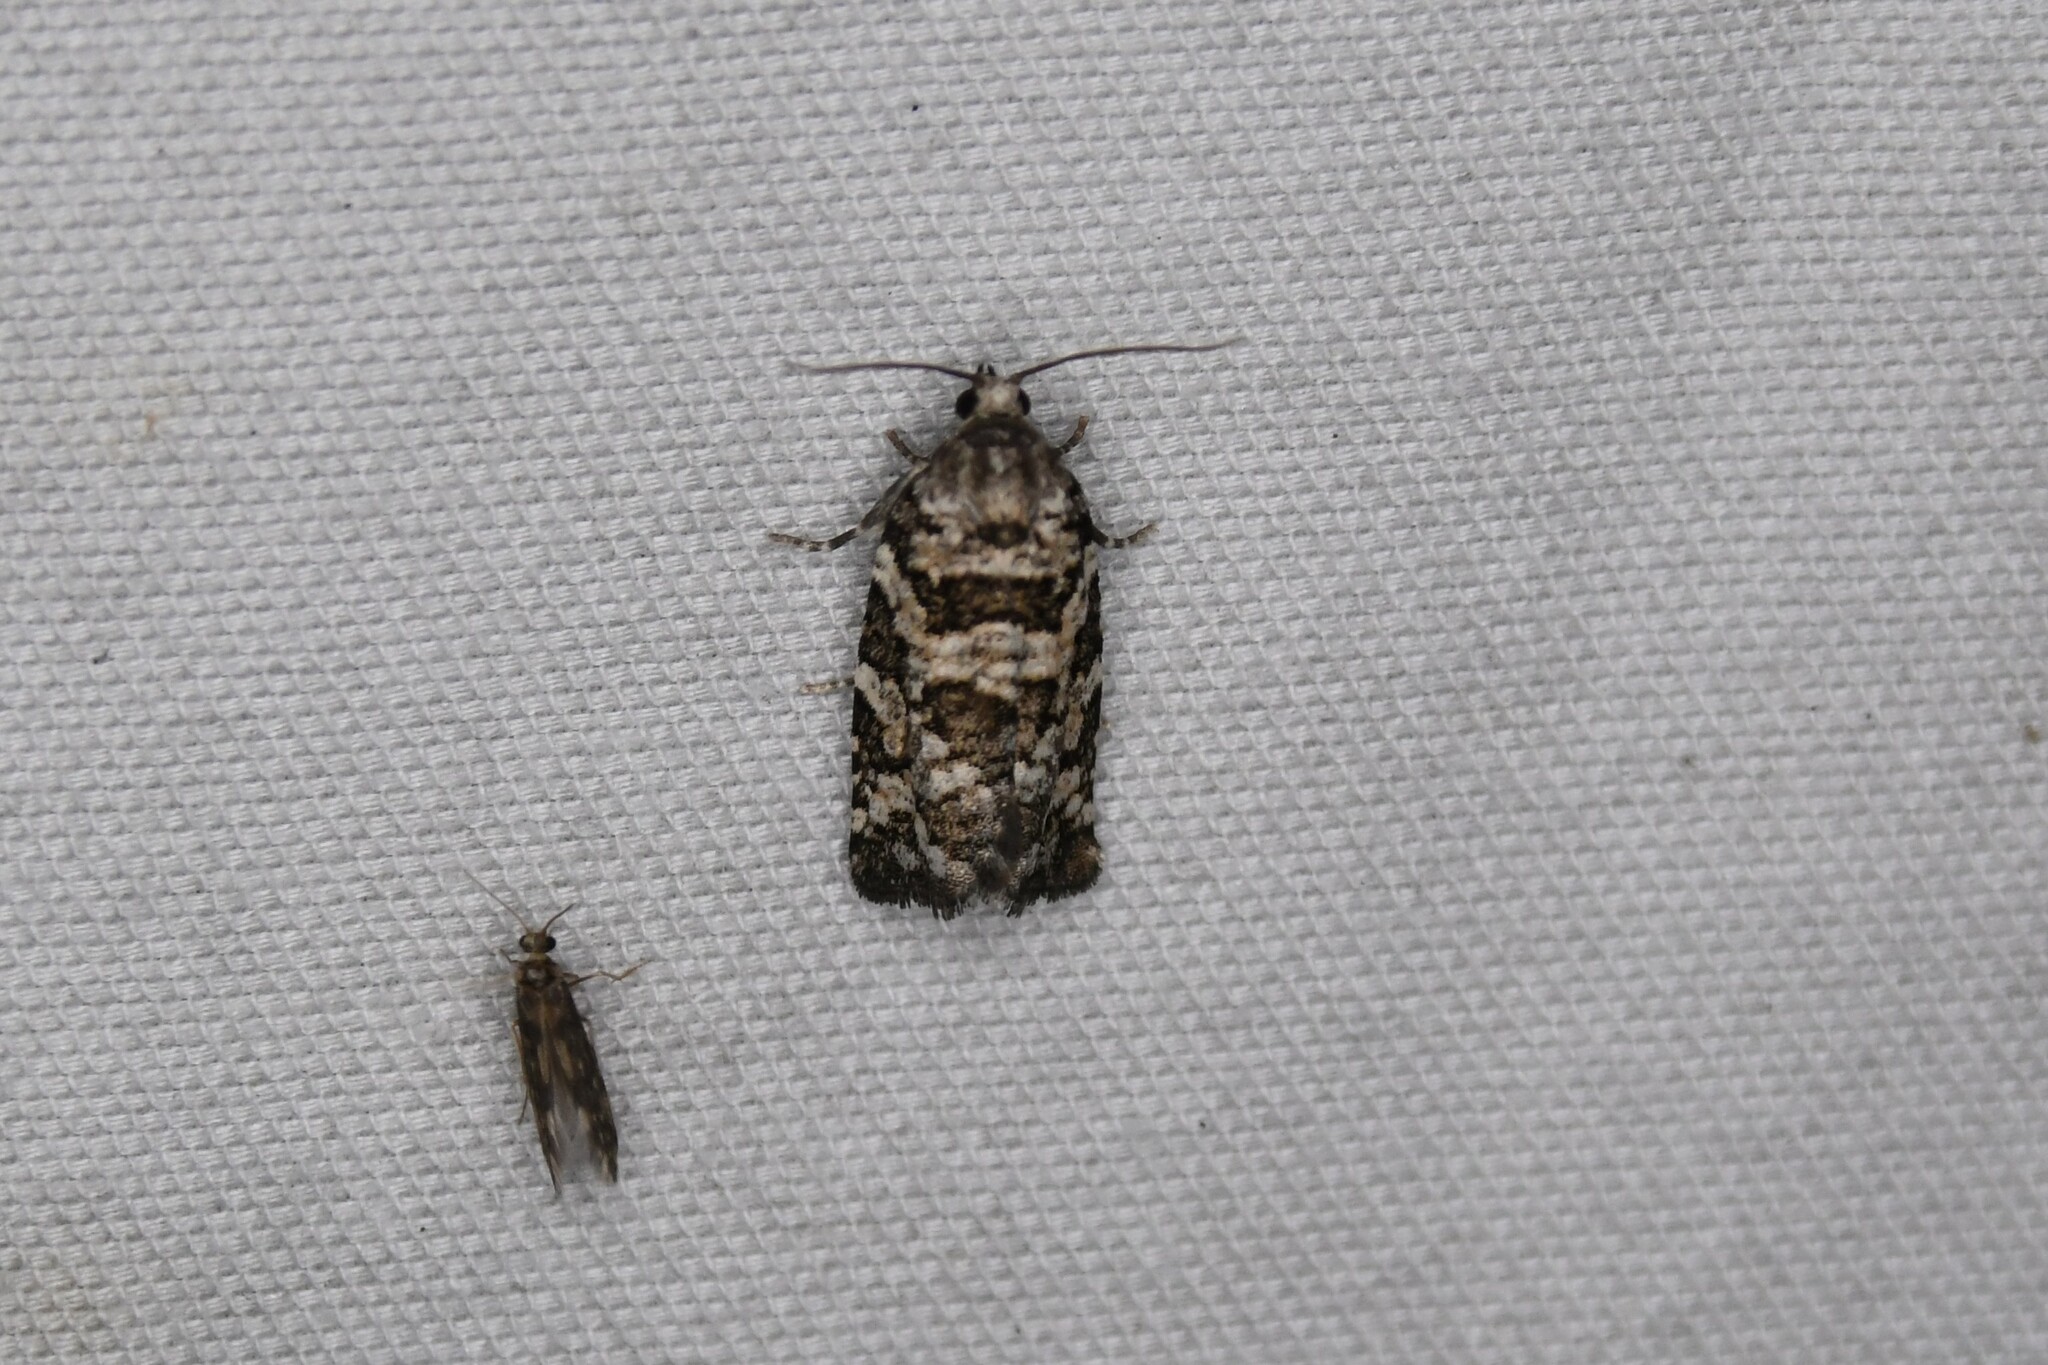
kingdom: Animalia
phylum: Arthropoda
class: Insecta
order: Lepidoptera
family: Tortricidae
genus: Archips
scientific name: Archips packardiana
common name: Spring spruce needle moth
